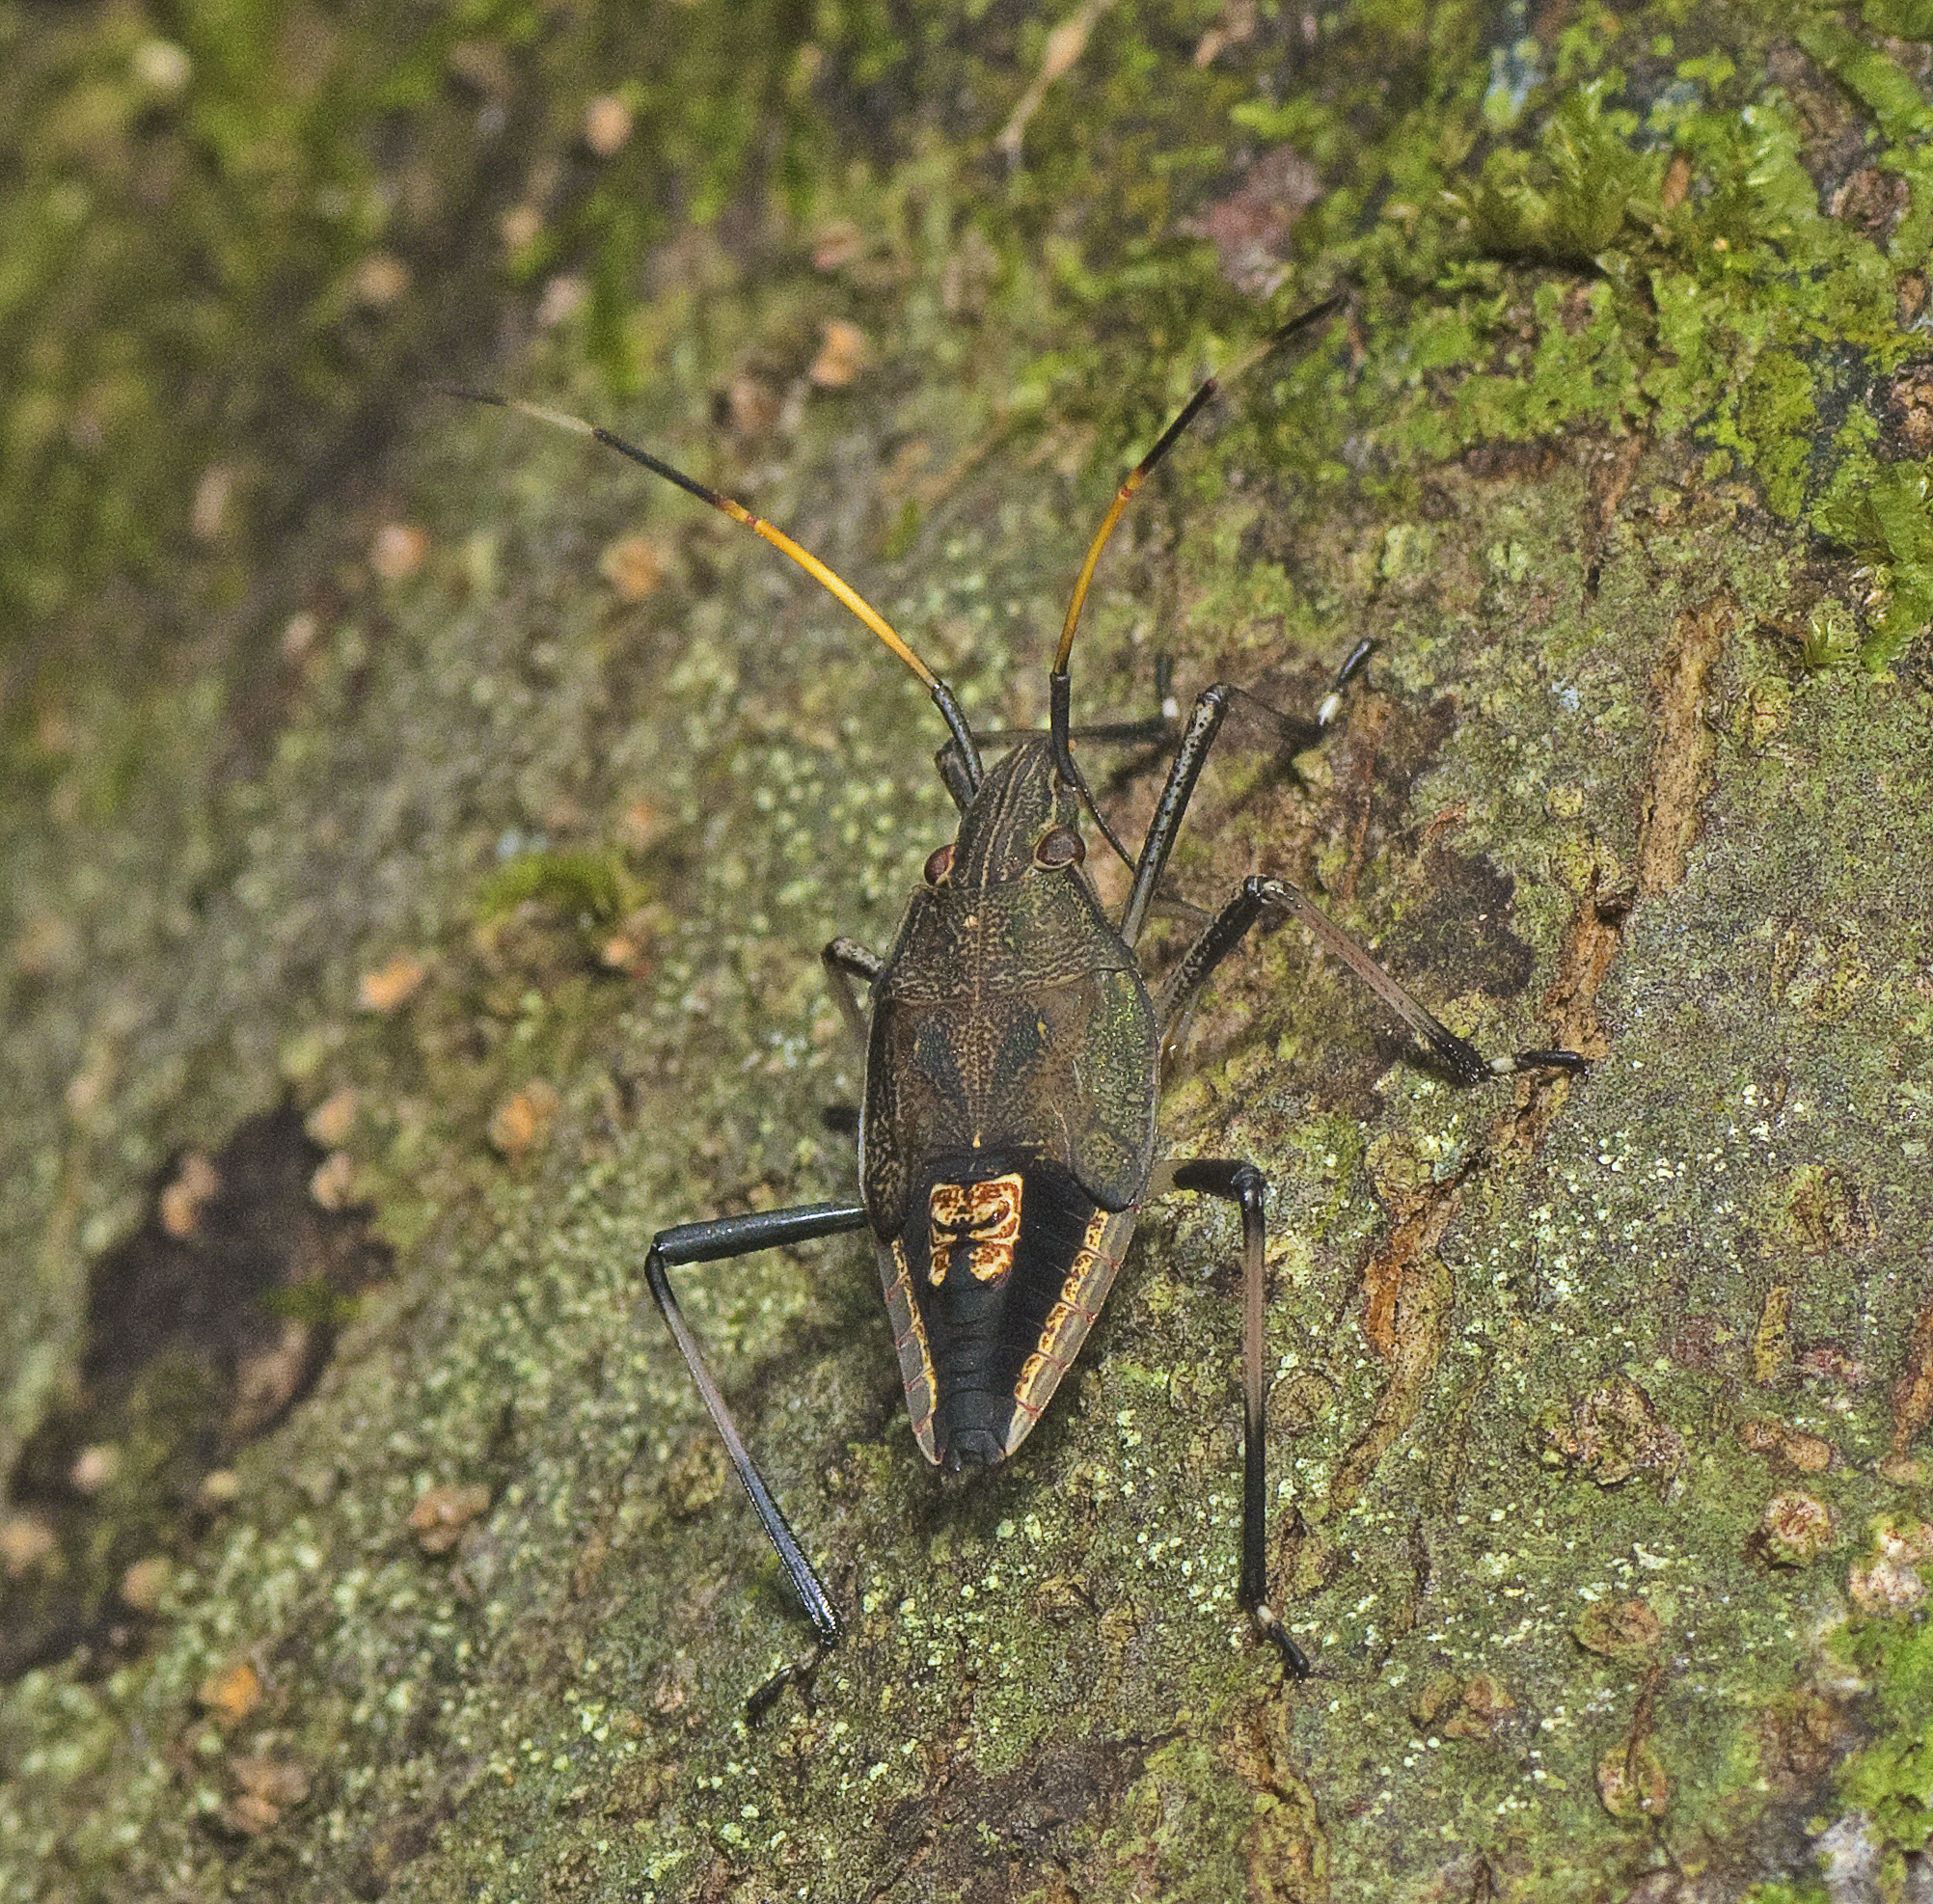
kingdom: Animalia
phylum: Arthropoda
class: Insecta
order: Hemiptera
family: Pentatomidae
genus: Poecilometis
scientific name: Poecilometis
